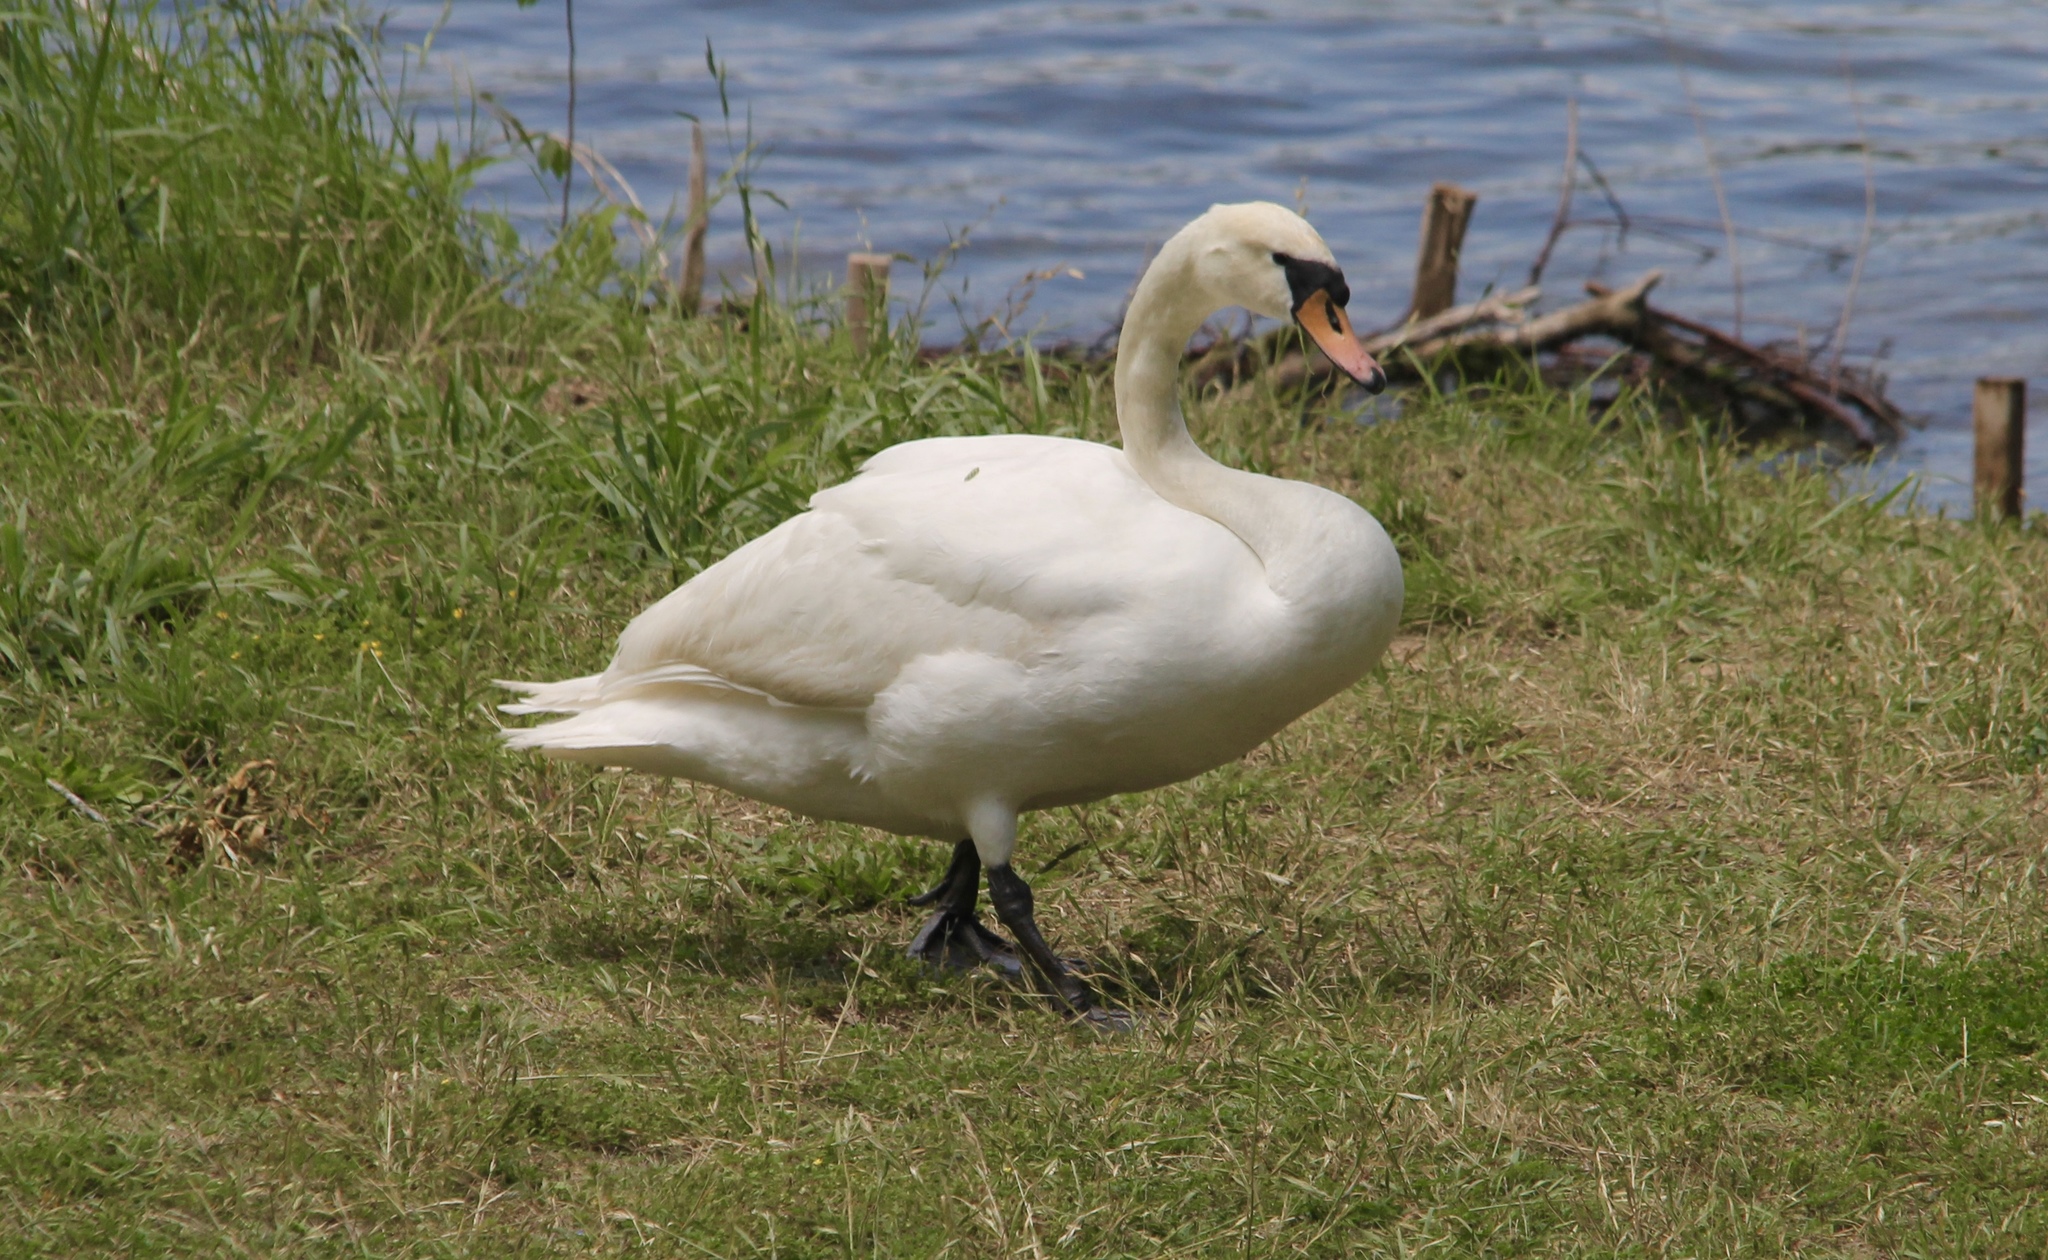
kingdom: Animalia
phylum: Chordata
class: Aves
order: Anseriformes
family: Anatidae
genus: Cygnus
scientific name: Cygnus olor
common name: Mute swan
